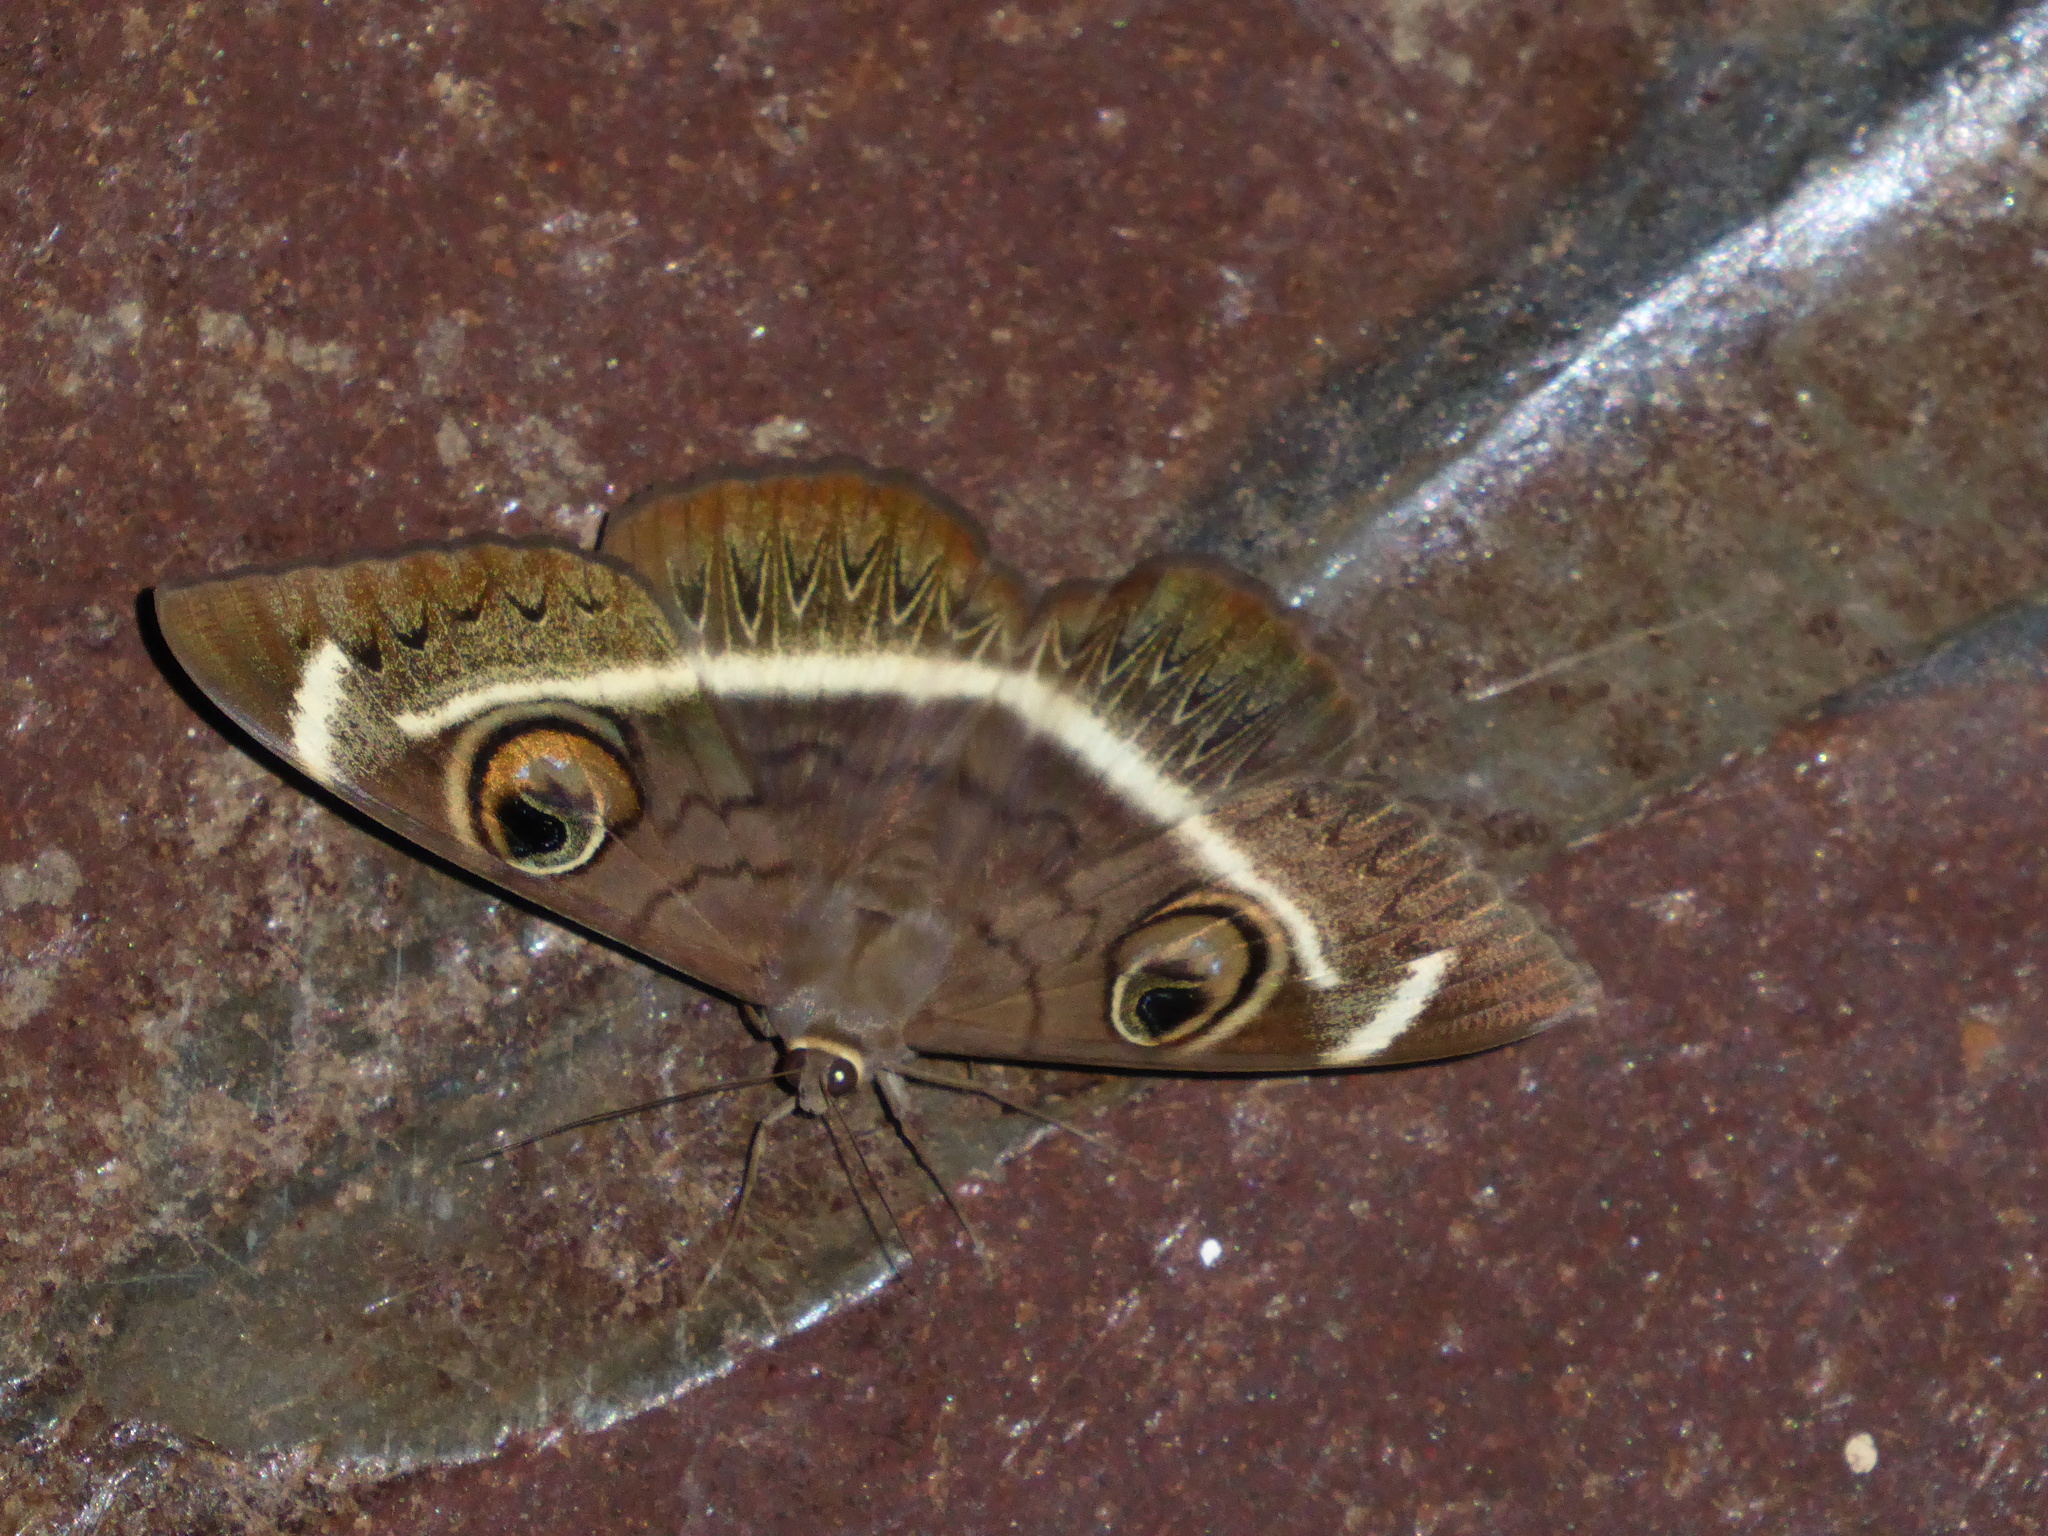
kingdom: Animalia
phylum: Arthropoda
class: Insecta
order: Lepidoptera
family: Erebidae
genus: Cyligramma
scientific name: Cyligramma latona
